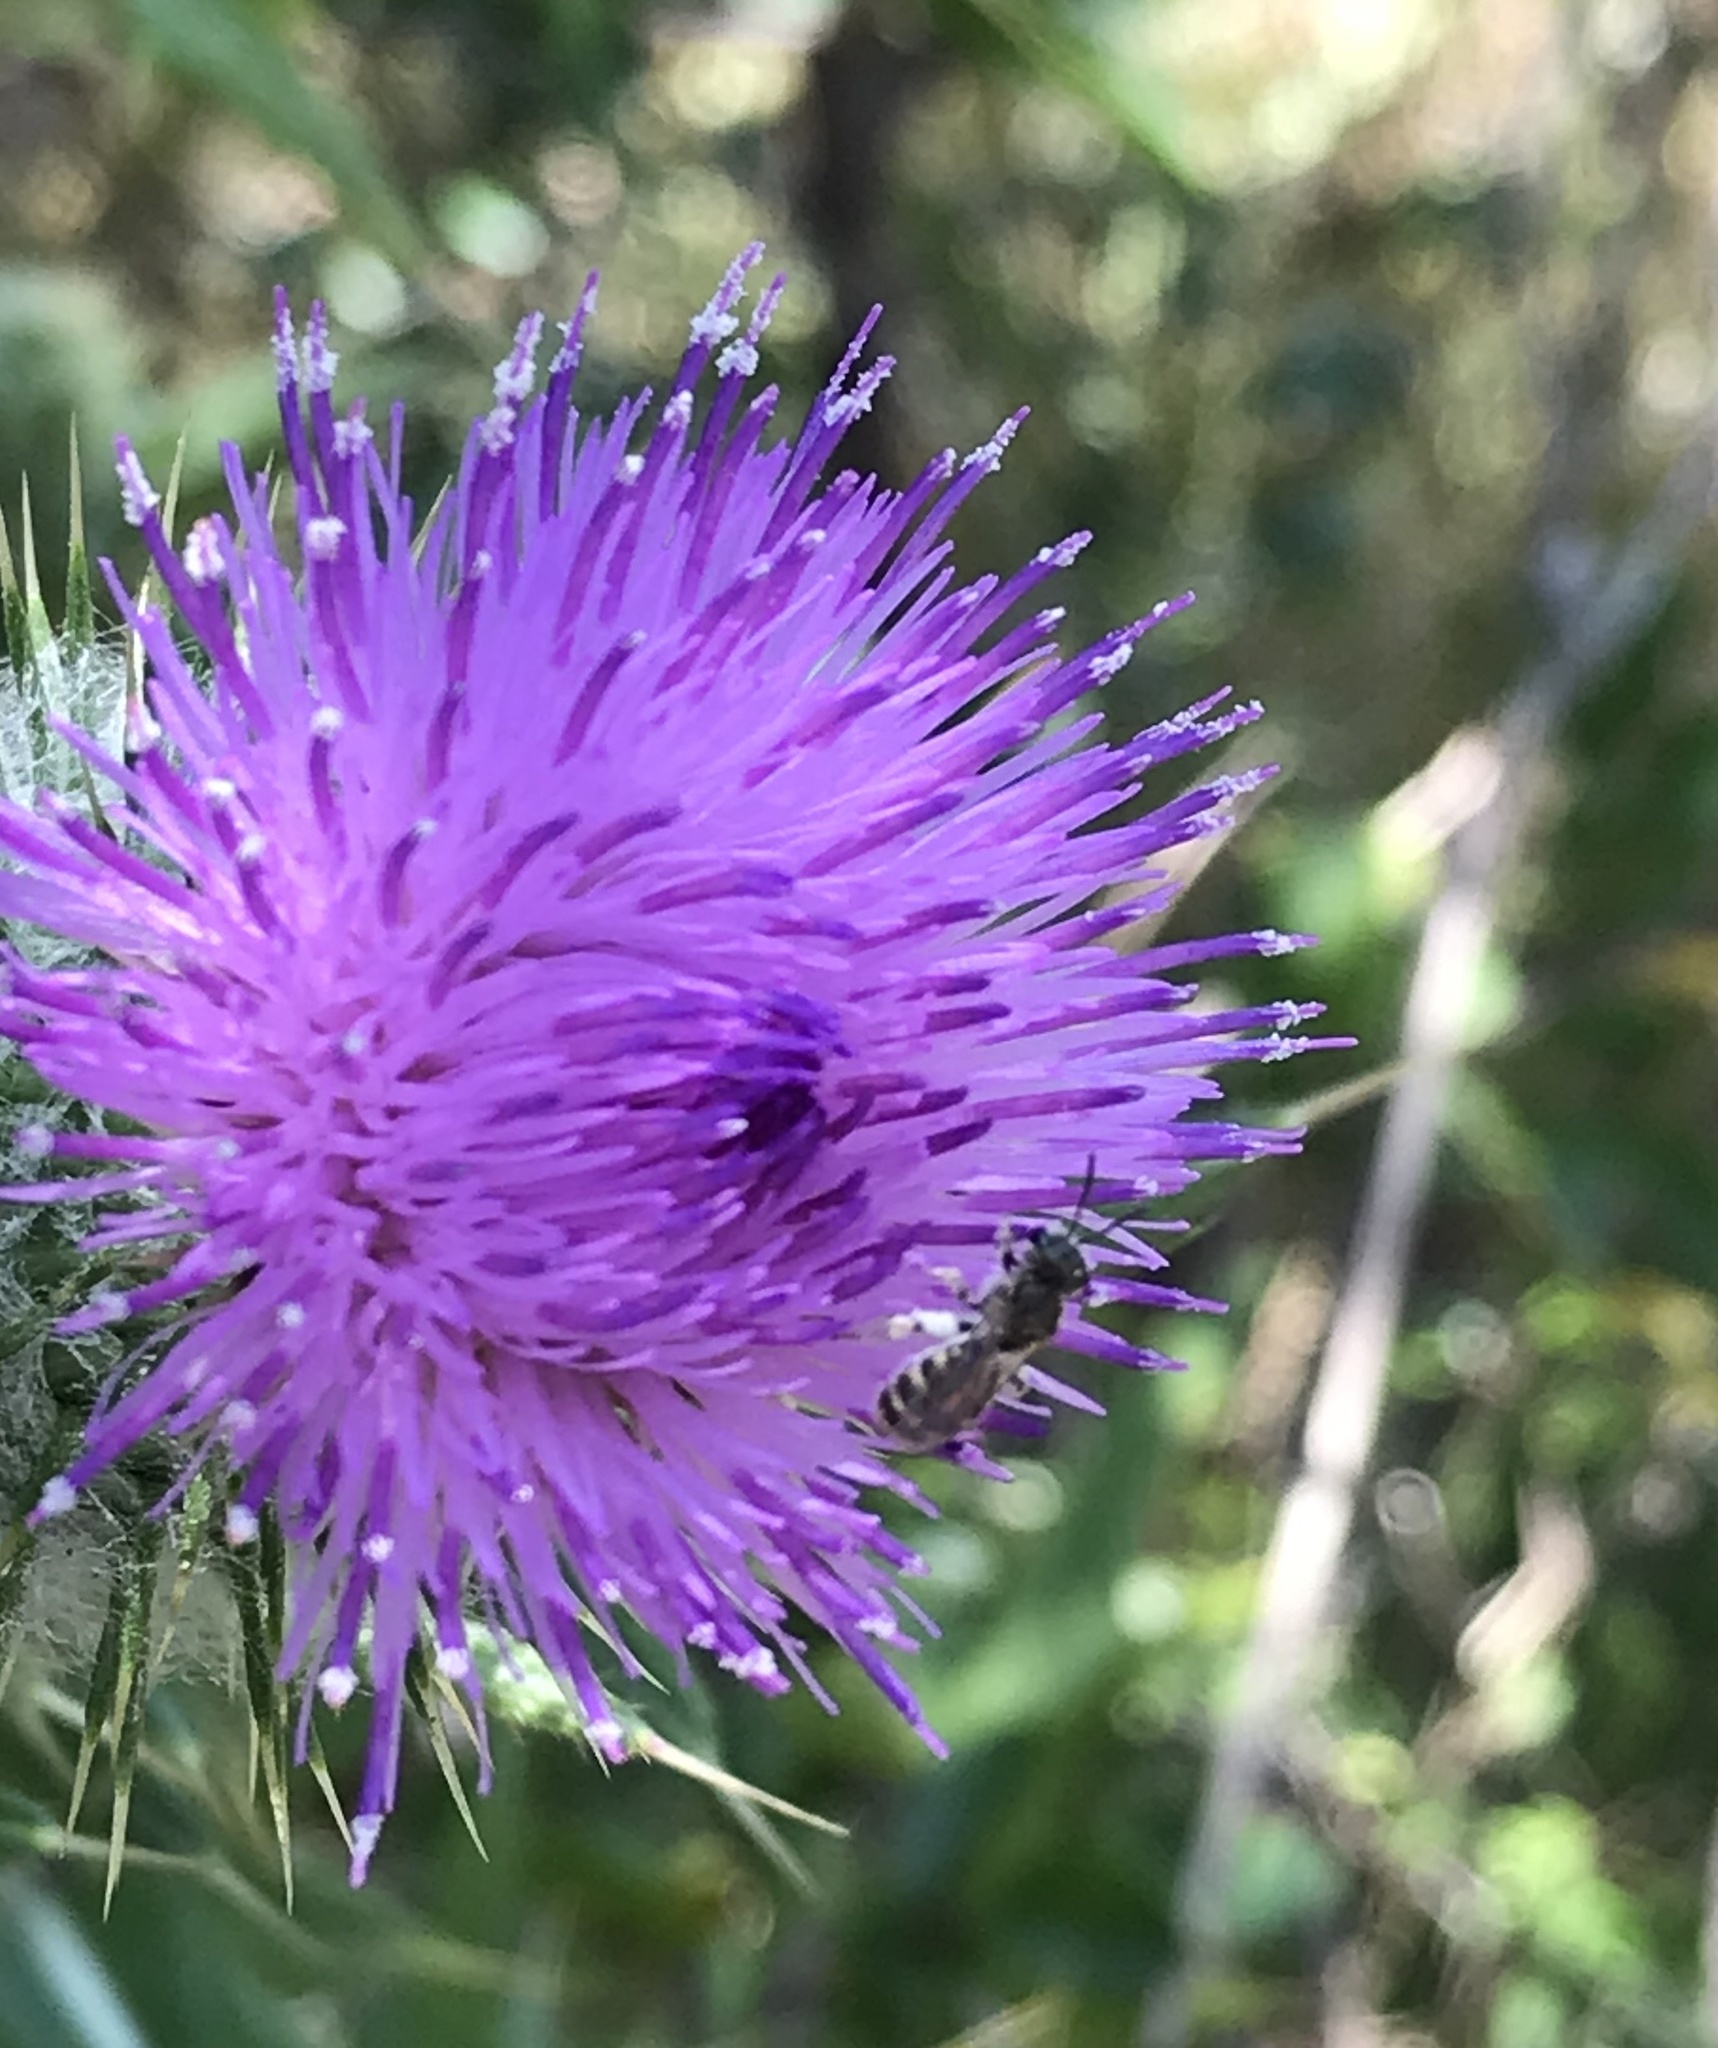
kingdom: Animalia
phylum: Arthropoda
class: Insecta
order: Hymenoptera
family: Halictidae
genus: Halictus
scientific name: Halictus tripartitus
